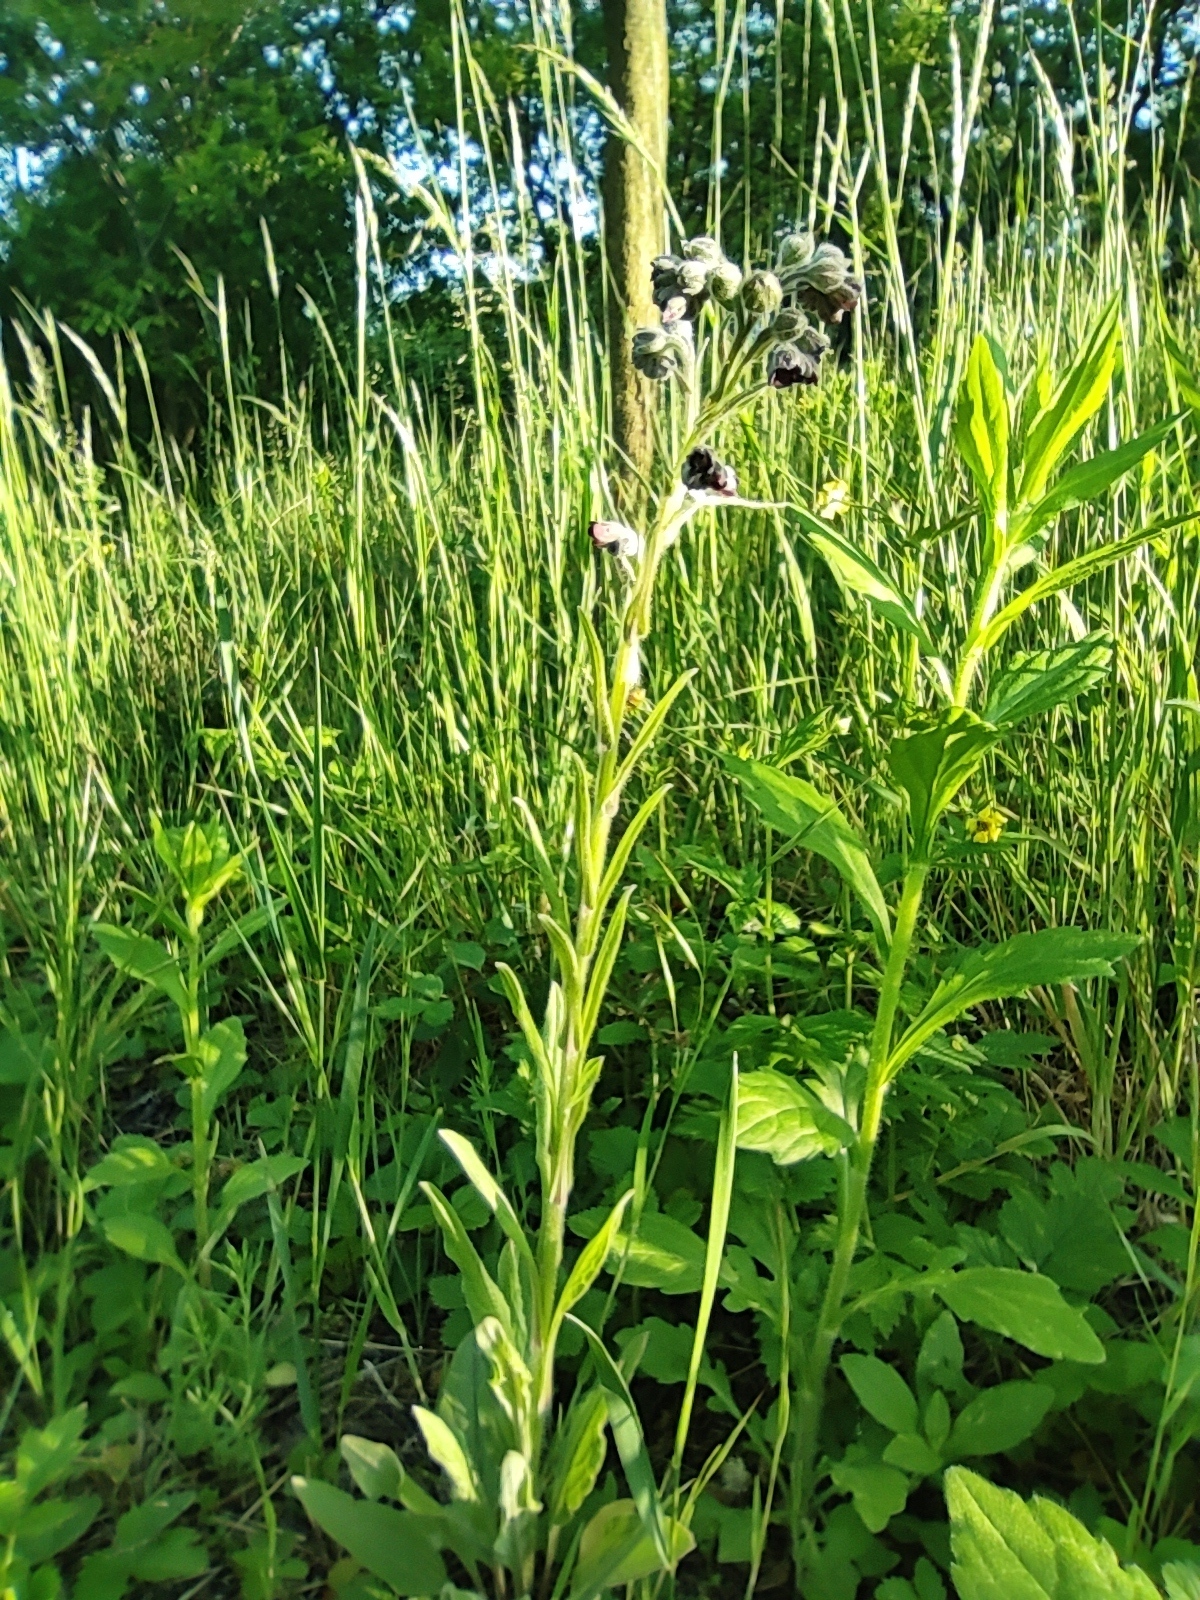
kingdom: Plantae
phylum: Tracheophyta
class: Magnoliopsida
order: Boraginales
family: Boraginaceae
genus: Nonea
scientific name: Nonea pulla
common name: Brown nonea
